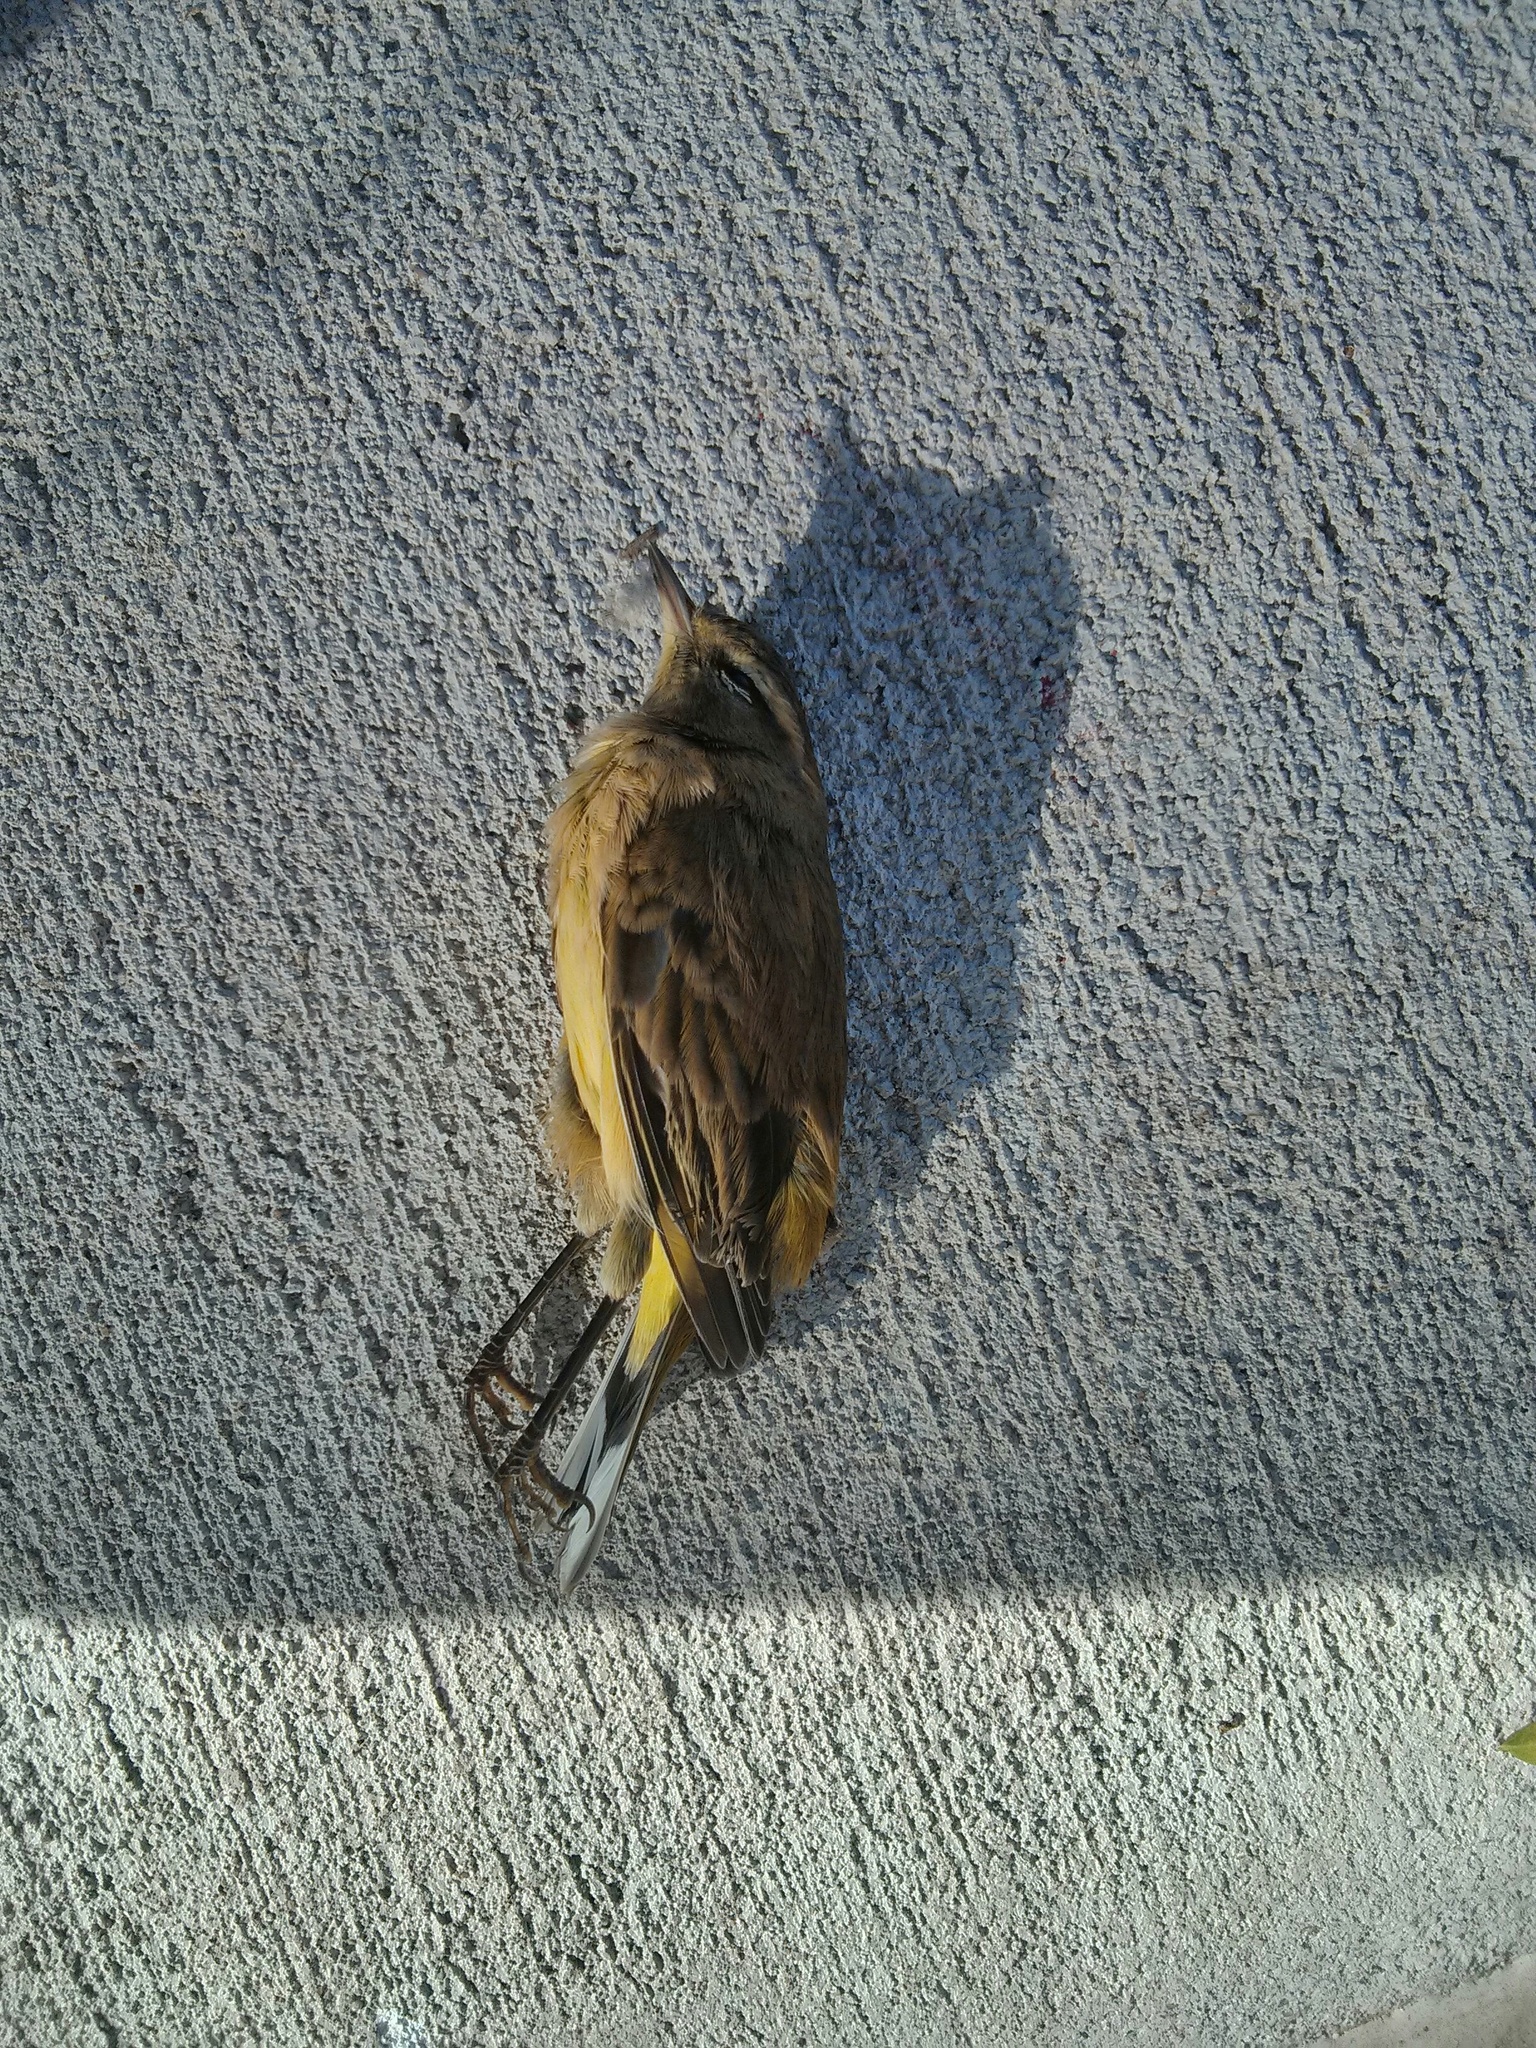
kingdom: Animalia
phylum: Chordata
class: Aves
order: Passeriformes
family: Parulidae
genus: Setophaga
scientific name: Setophaga palmarum
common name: Palm warbler
